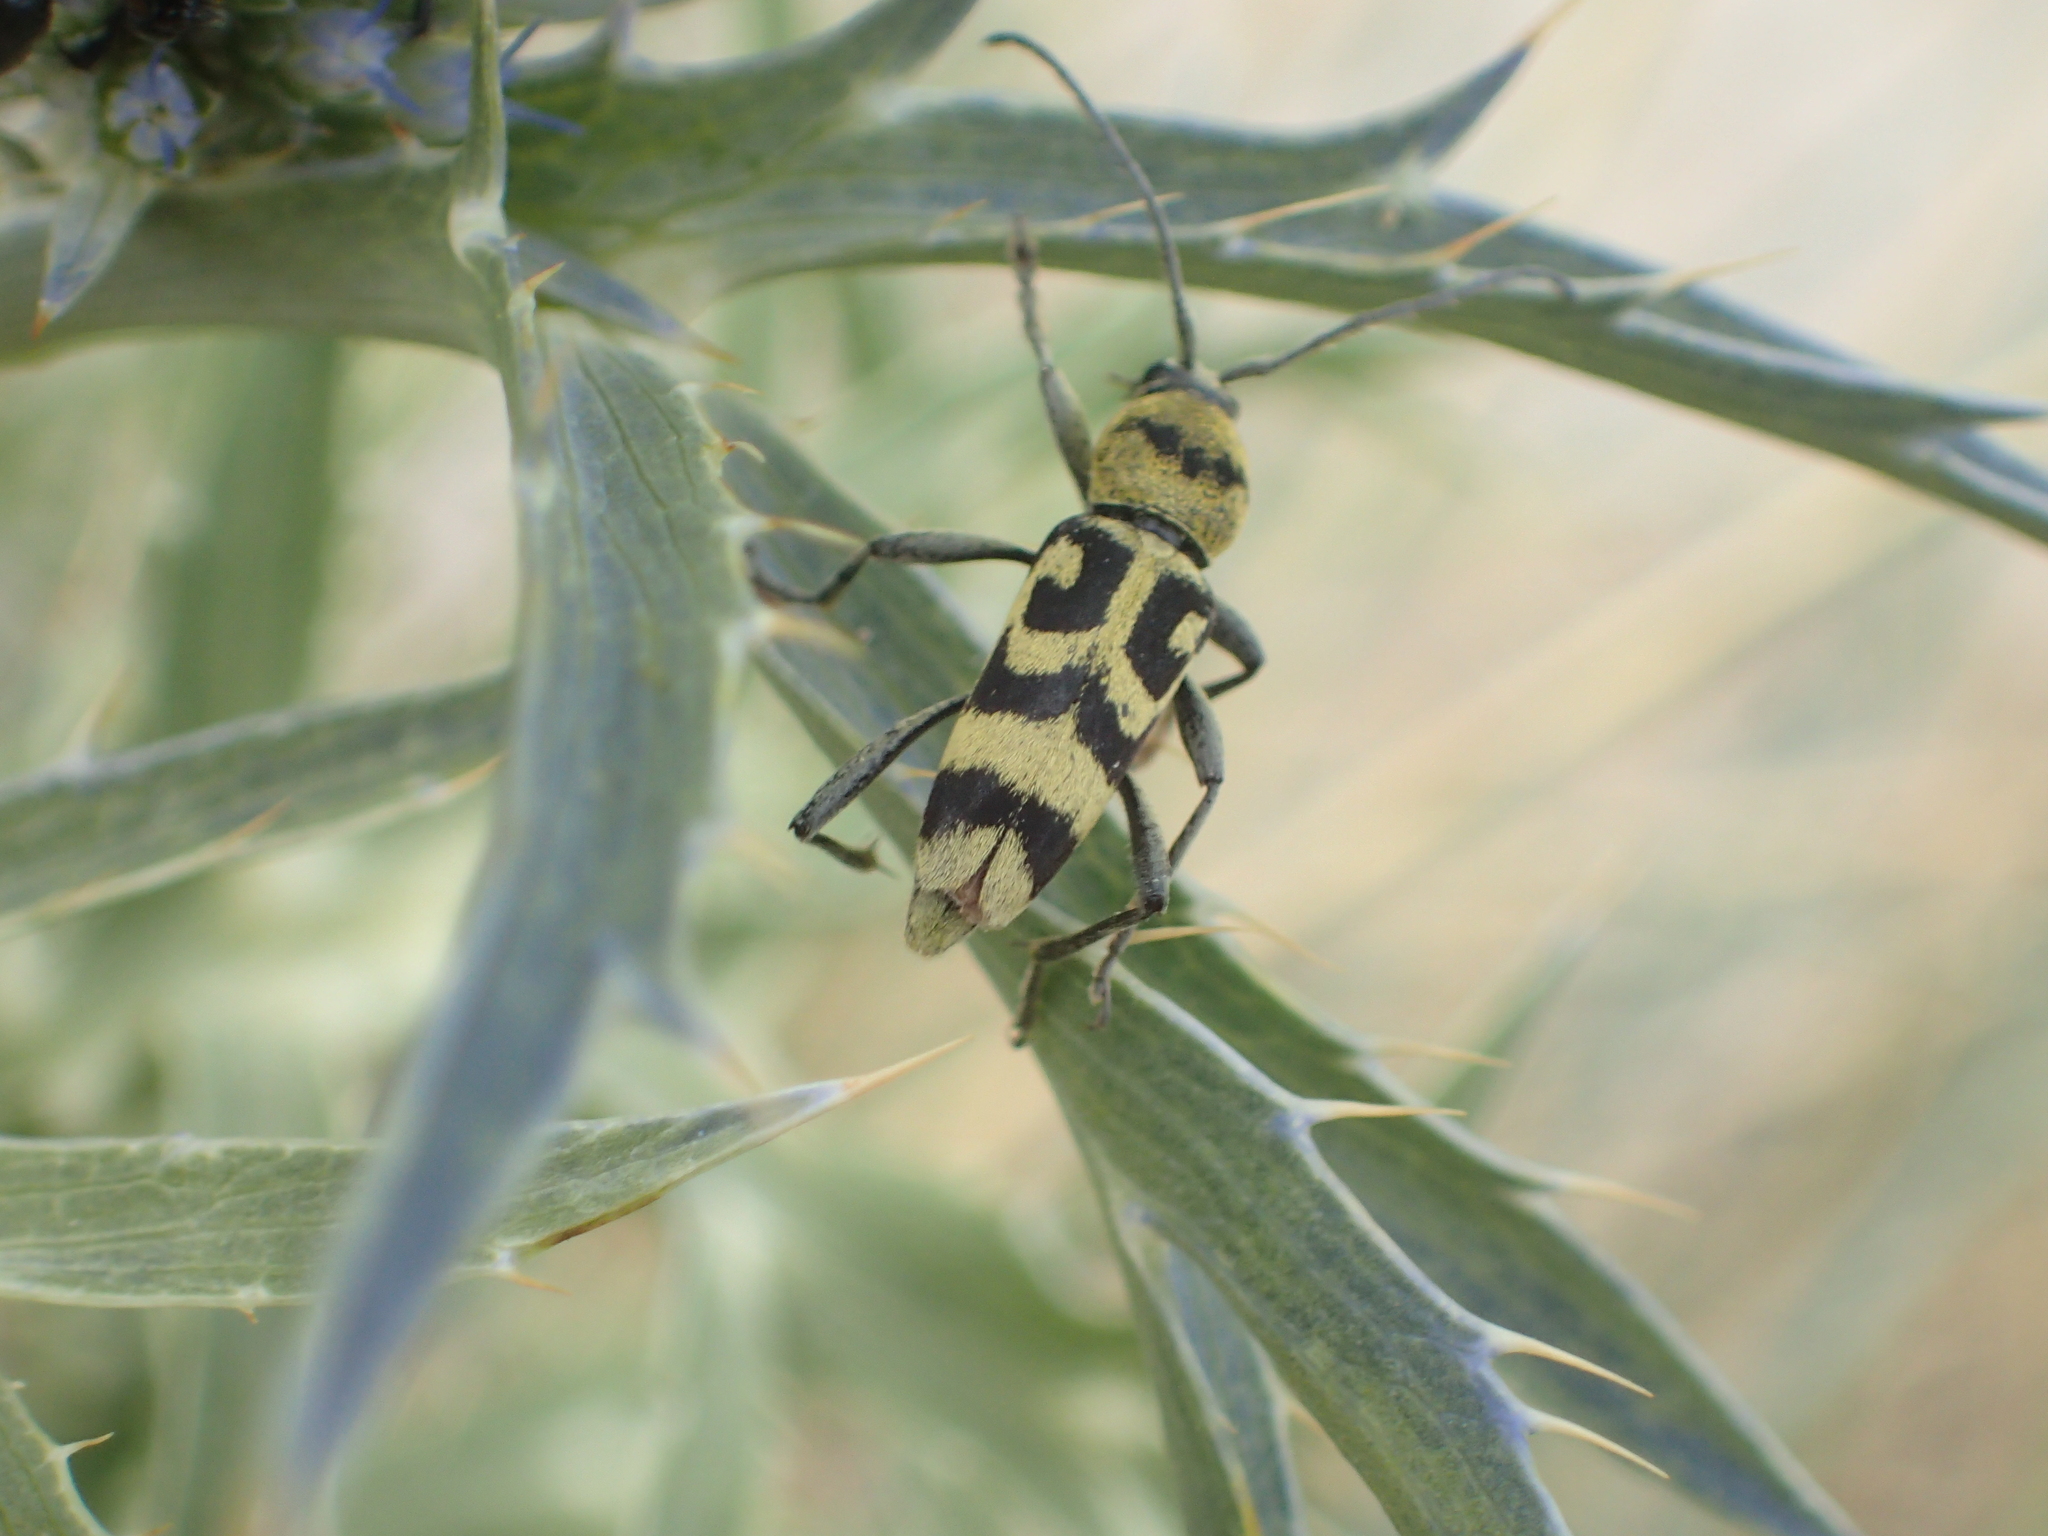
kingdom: Animalia
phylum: Arthropoda
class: Insecta
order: Coleoptera
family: Cerambycidae
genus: Chlorophorus
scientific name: Chlorophorus varius
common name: Grape wood borer
